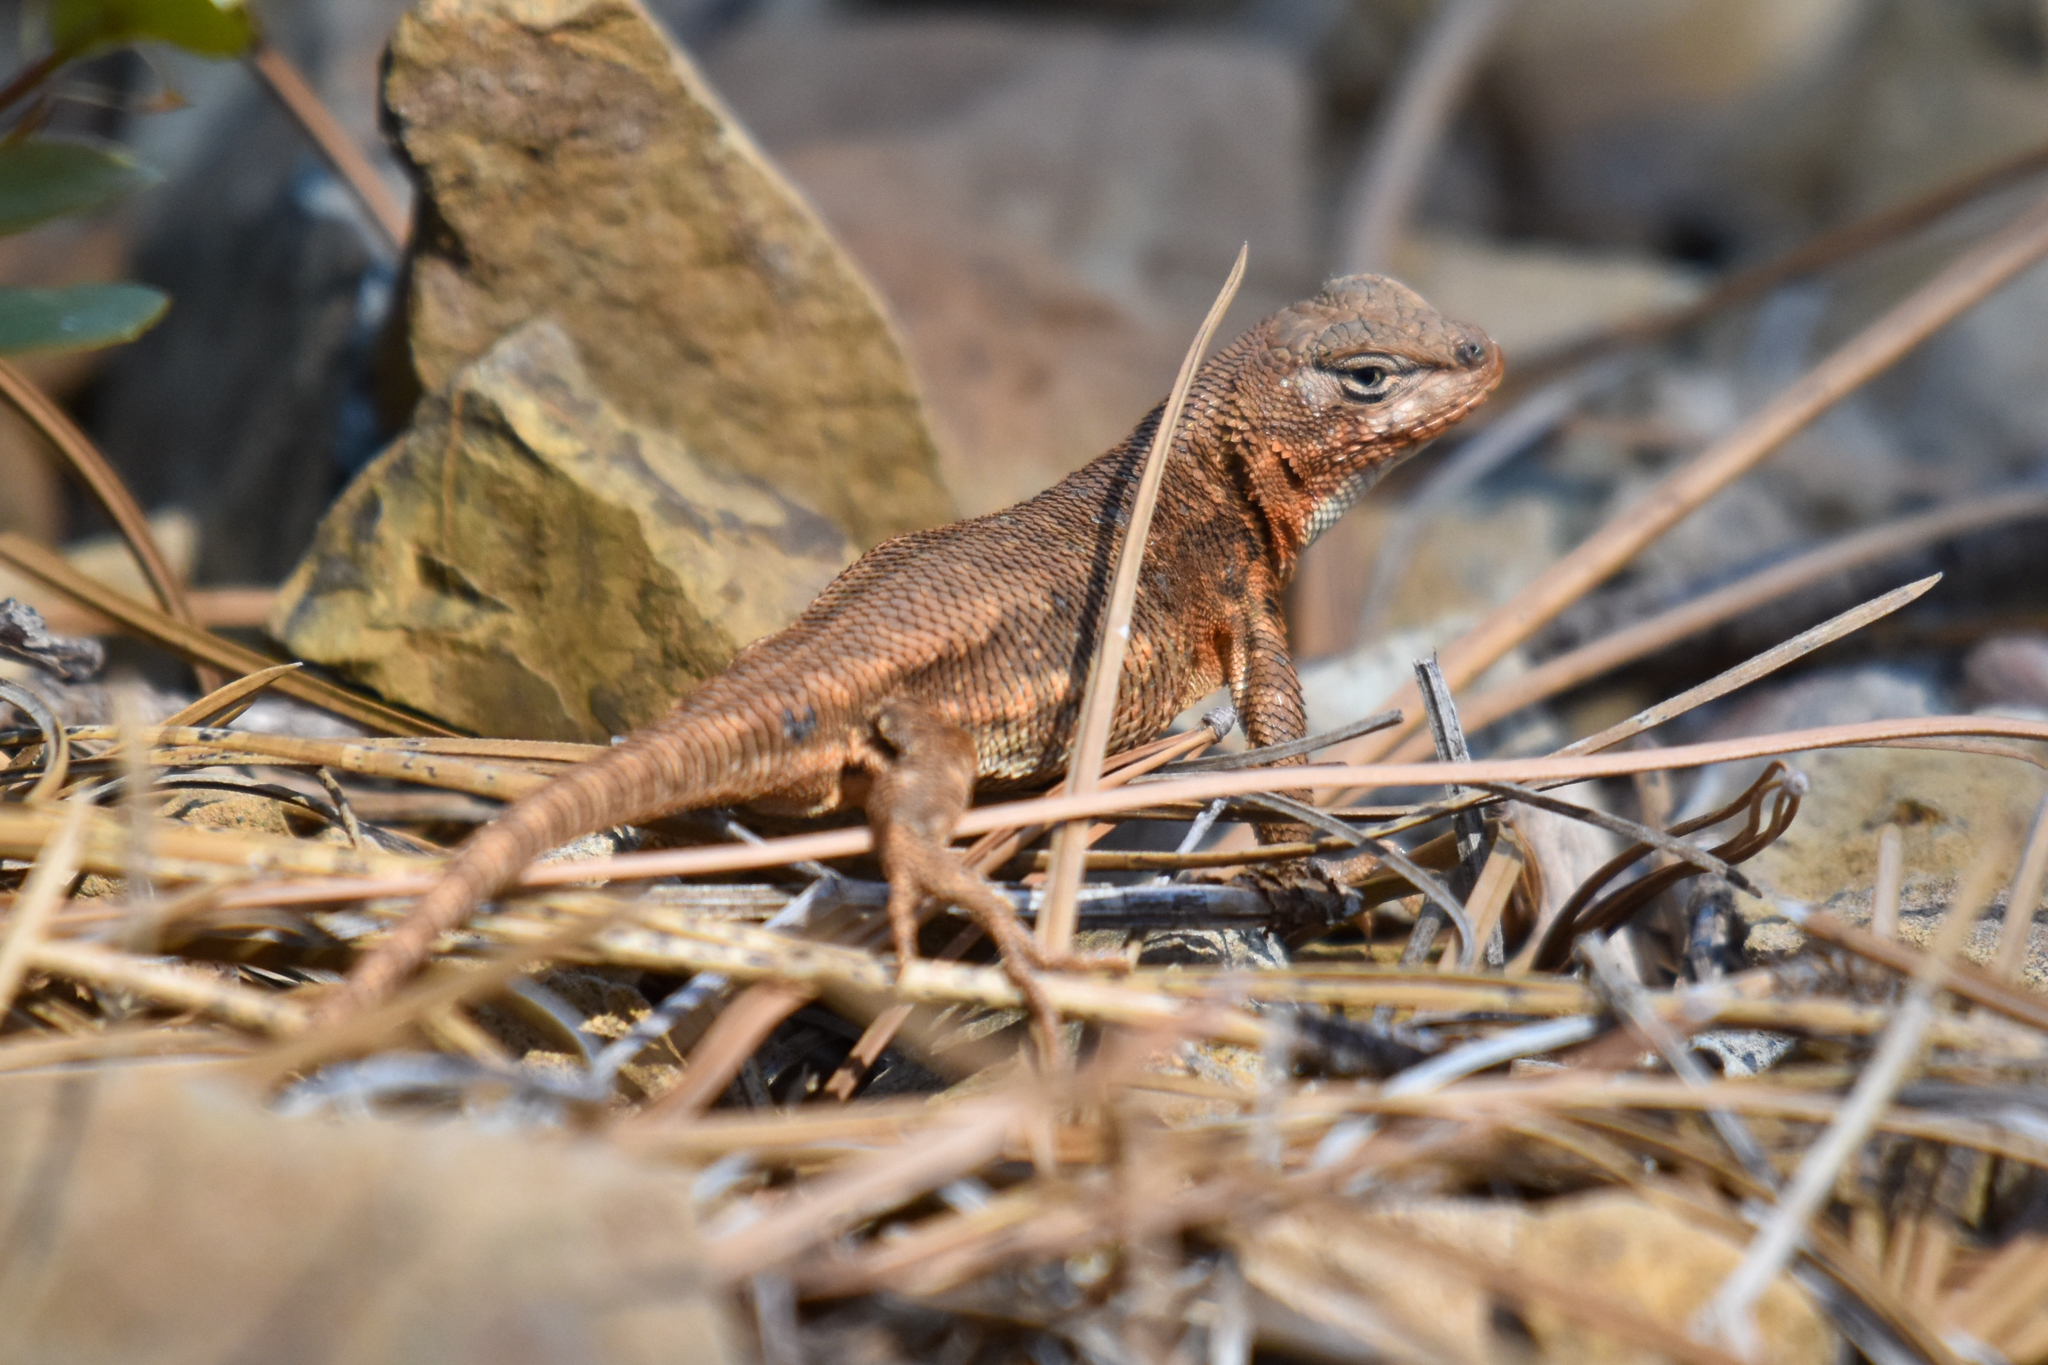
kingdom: Animalia
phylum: Chordata
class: Squamata
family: Phrynosomatidae
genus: Sceloporus
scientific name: Sceloporus graciosus
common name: Sagebrush lizard
